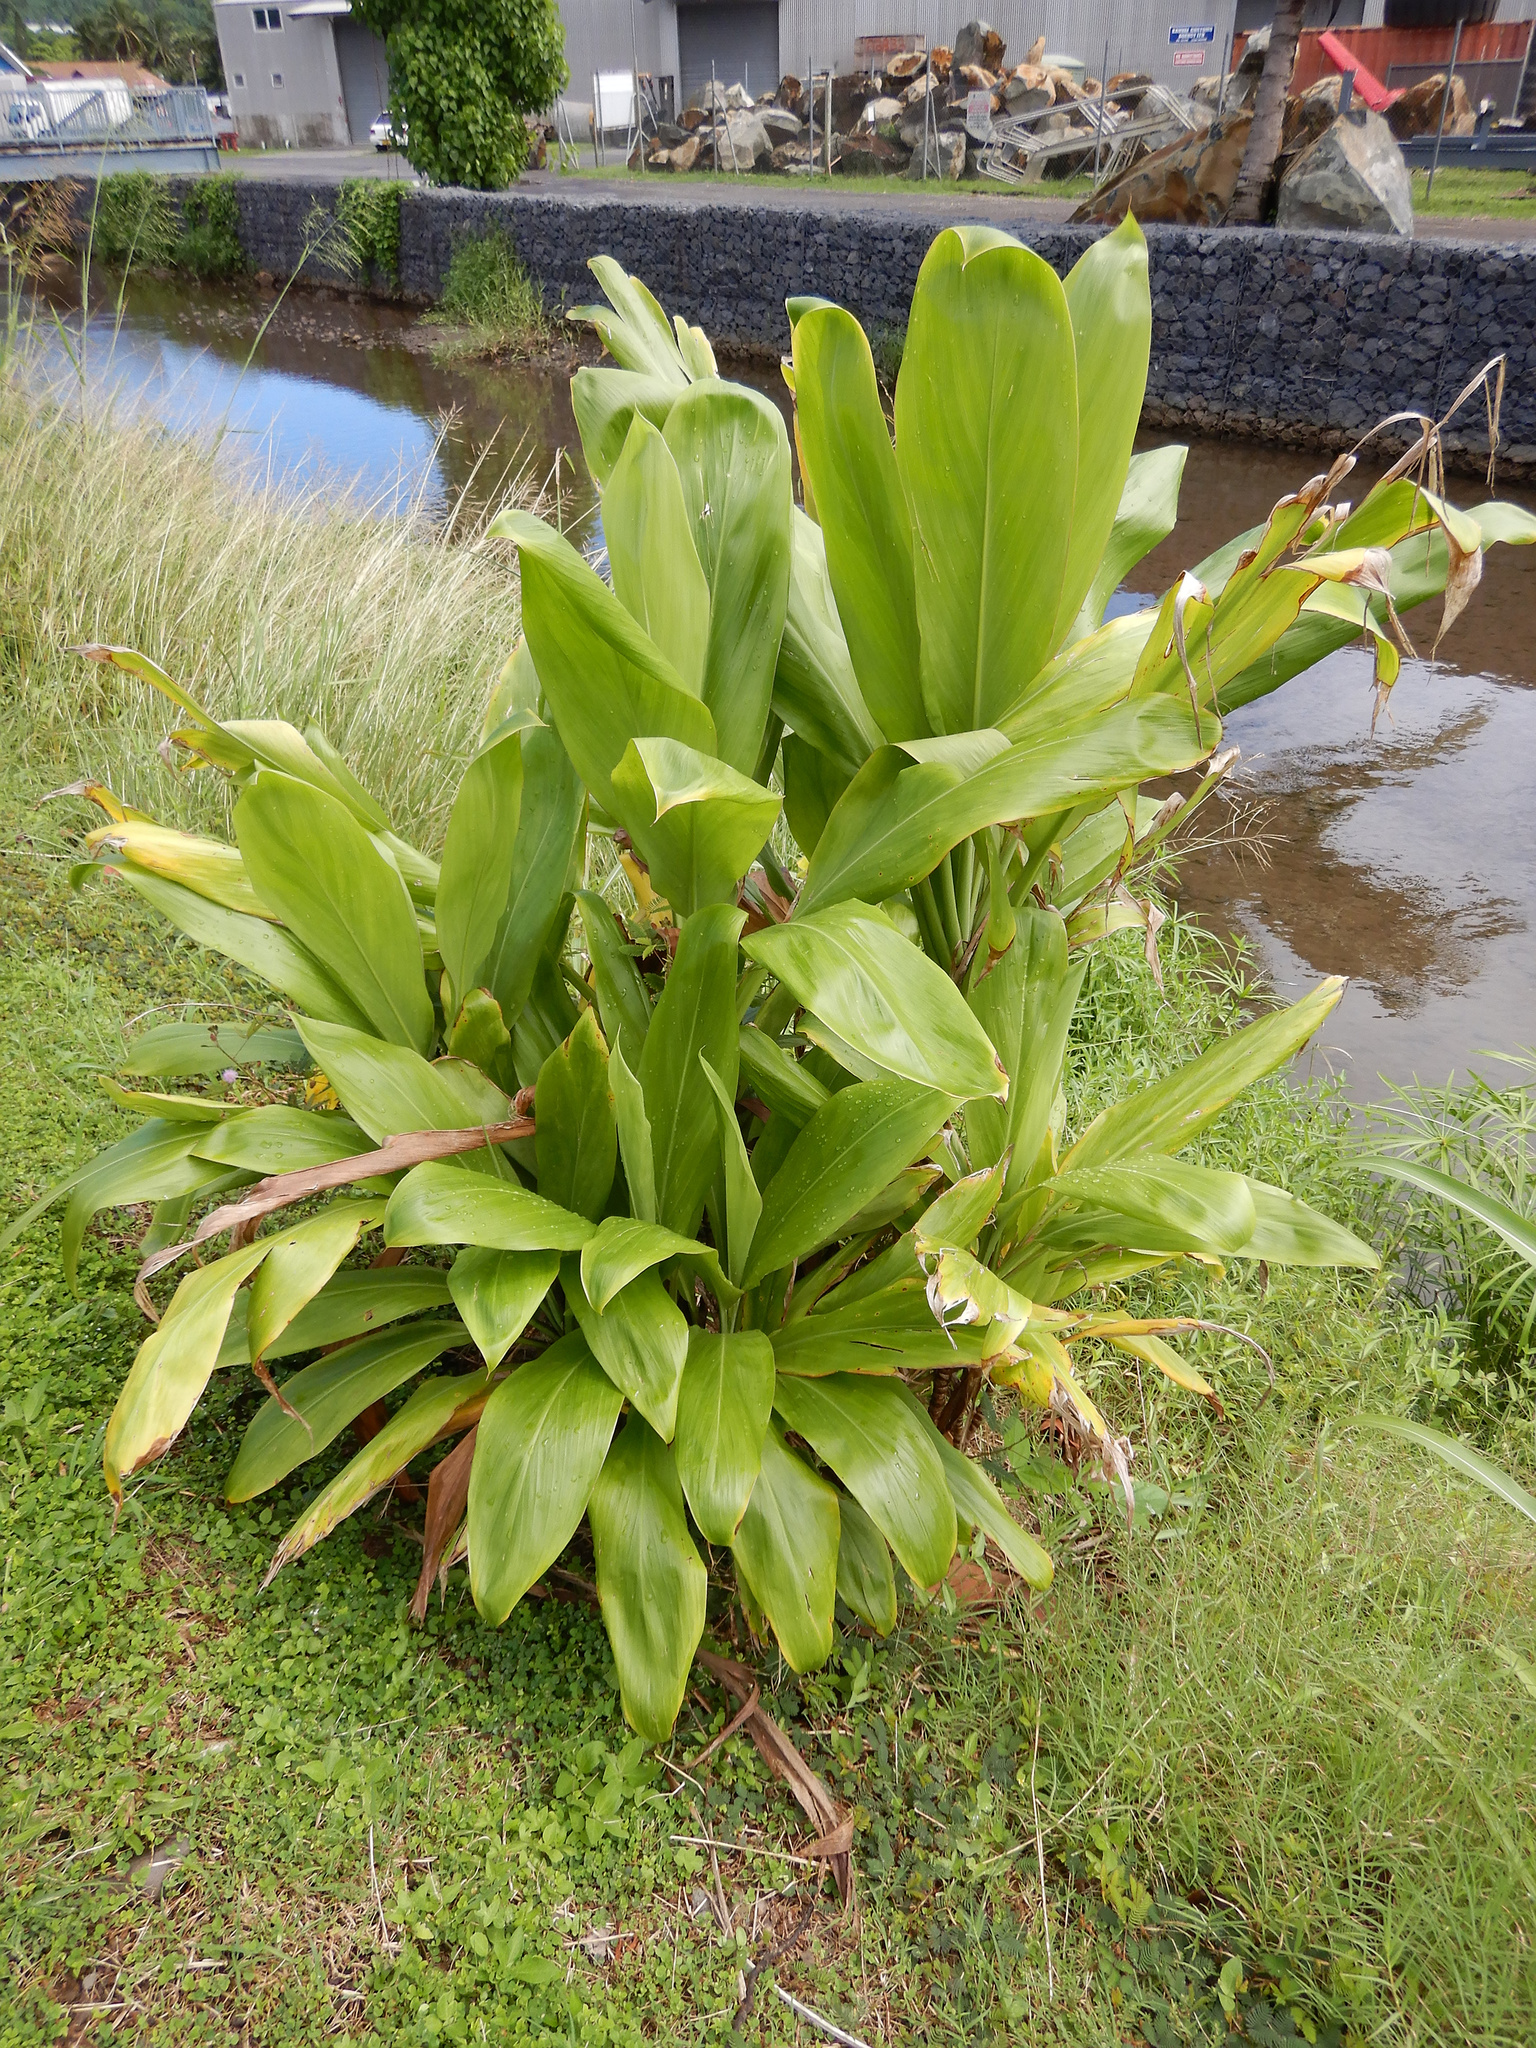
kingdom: Plantae
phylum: Tracheophyta
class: Liliopsida
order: Asparagales
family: Asparagaceae
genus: Cordyline
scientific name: Cordyline fruticosa
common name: Good-luck-plant
